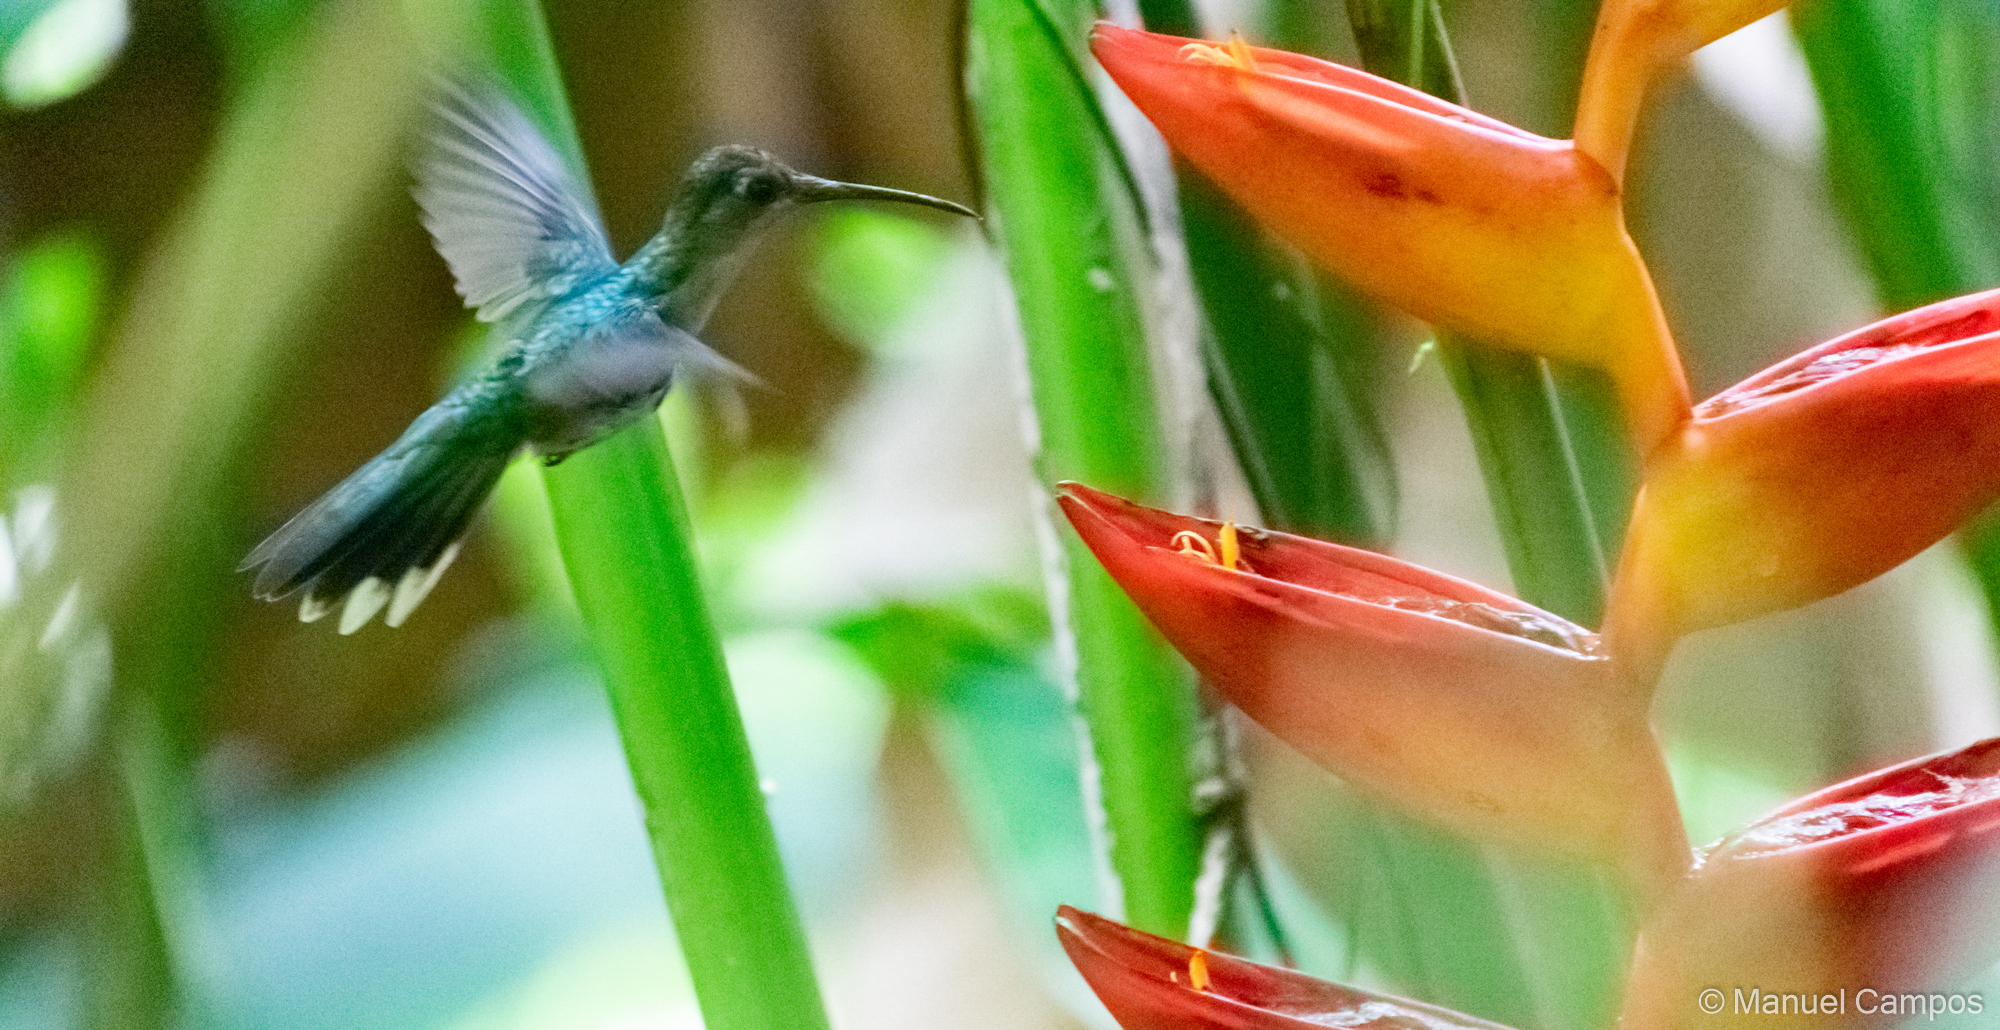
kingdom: Animalia
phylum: Chordata
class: Aves
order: Apodiformes
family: Trochilidae
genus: Pampa
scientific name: Pampa curvipennis
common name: Curve-winged sabrewing
